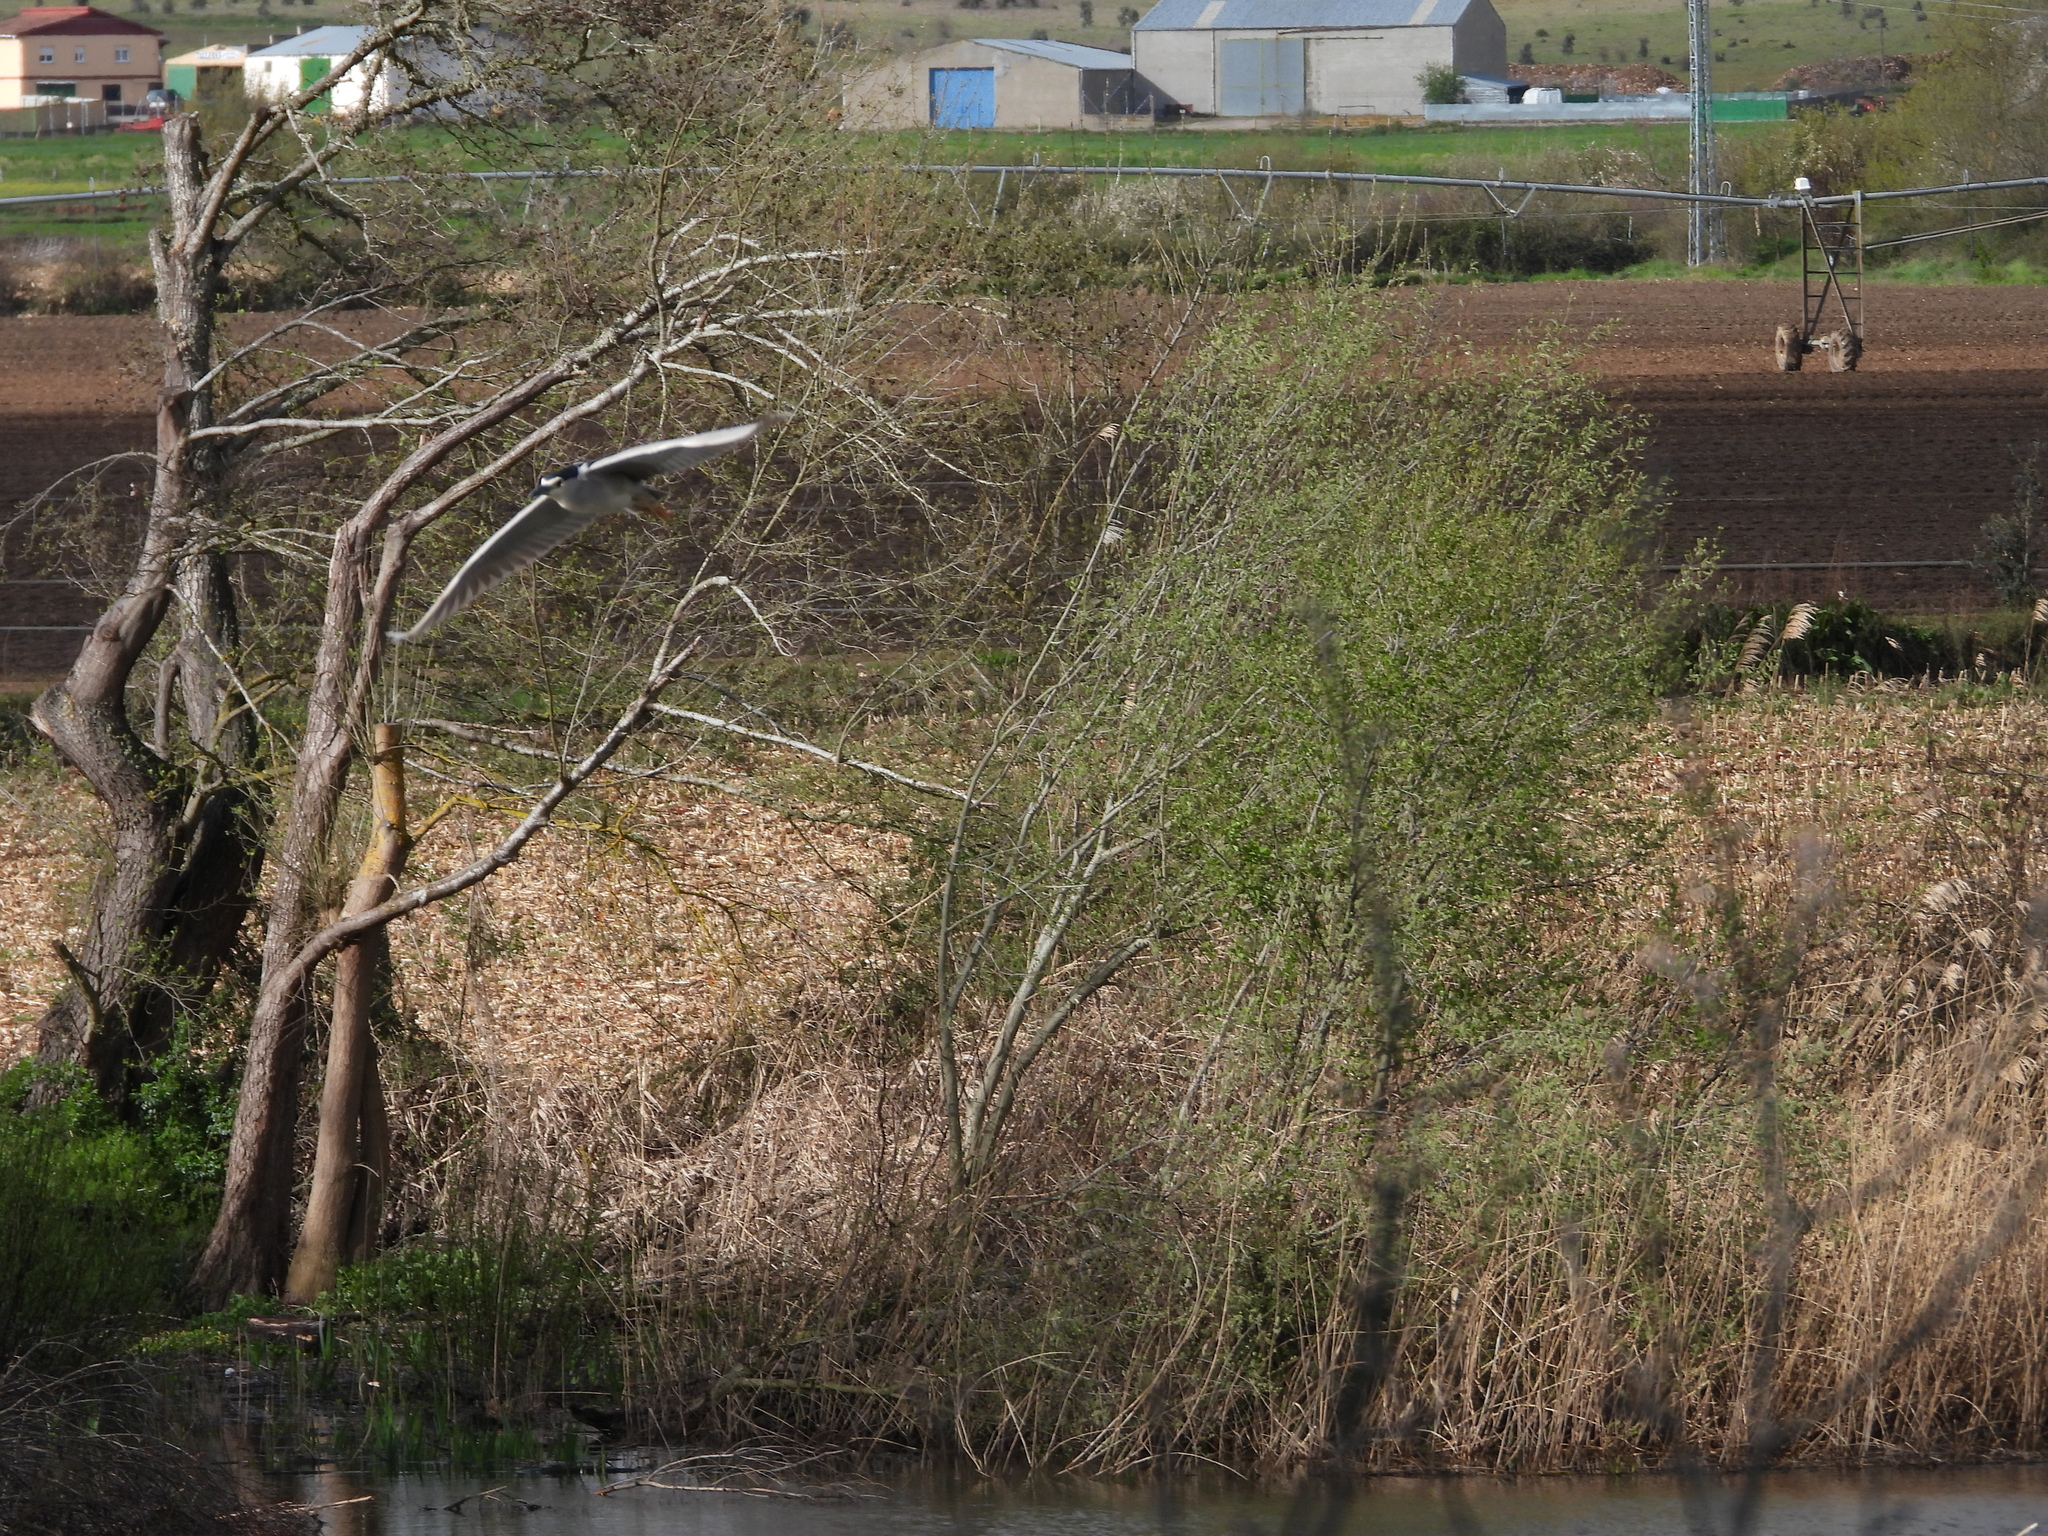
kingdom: Animalia
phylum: Chordata
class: Aves
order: Pelecaniformes
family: Ardeidae
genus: Nycticorax
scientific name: Nycticorax nycticorax
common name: Black-crowned night heron
